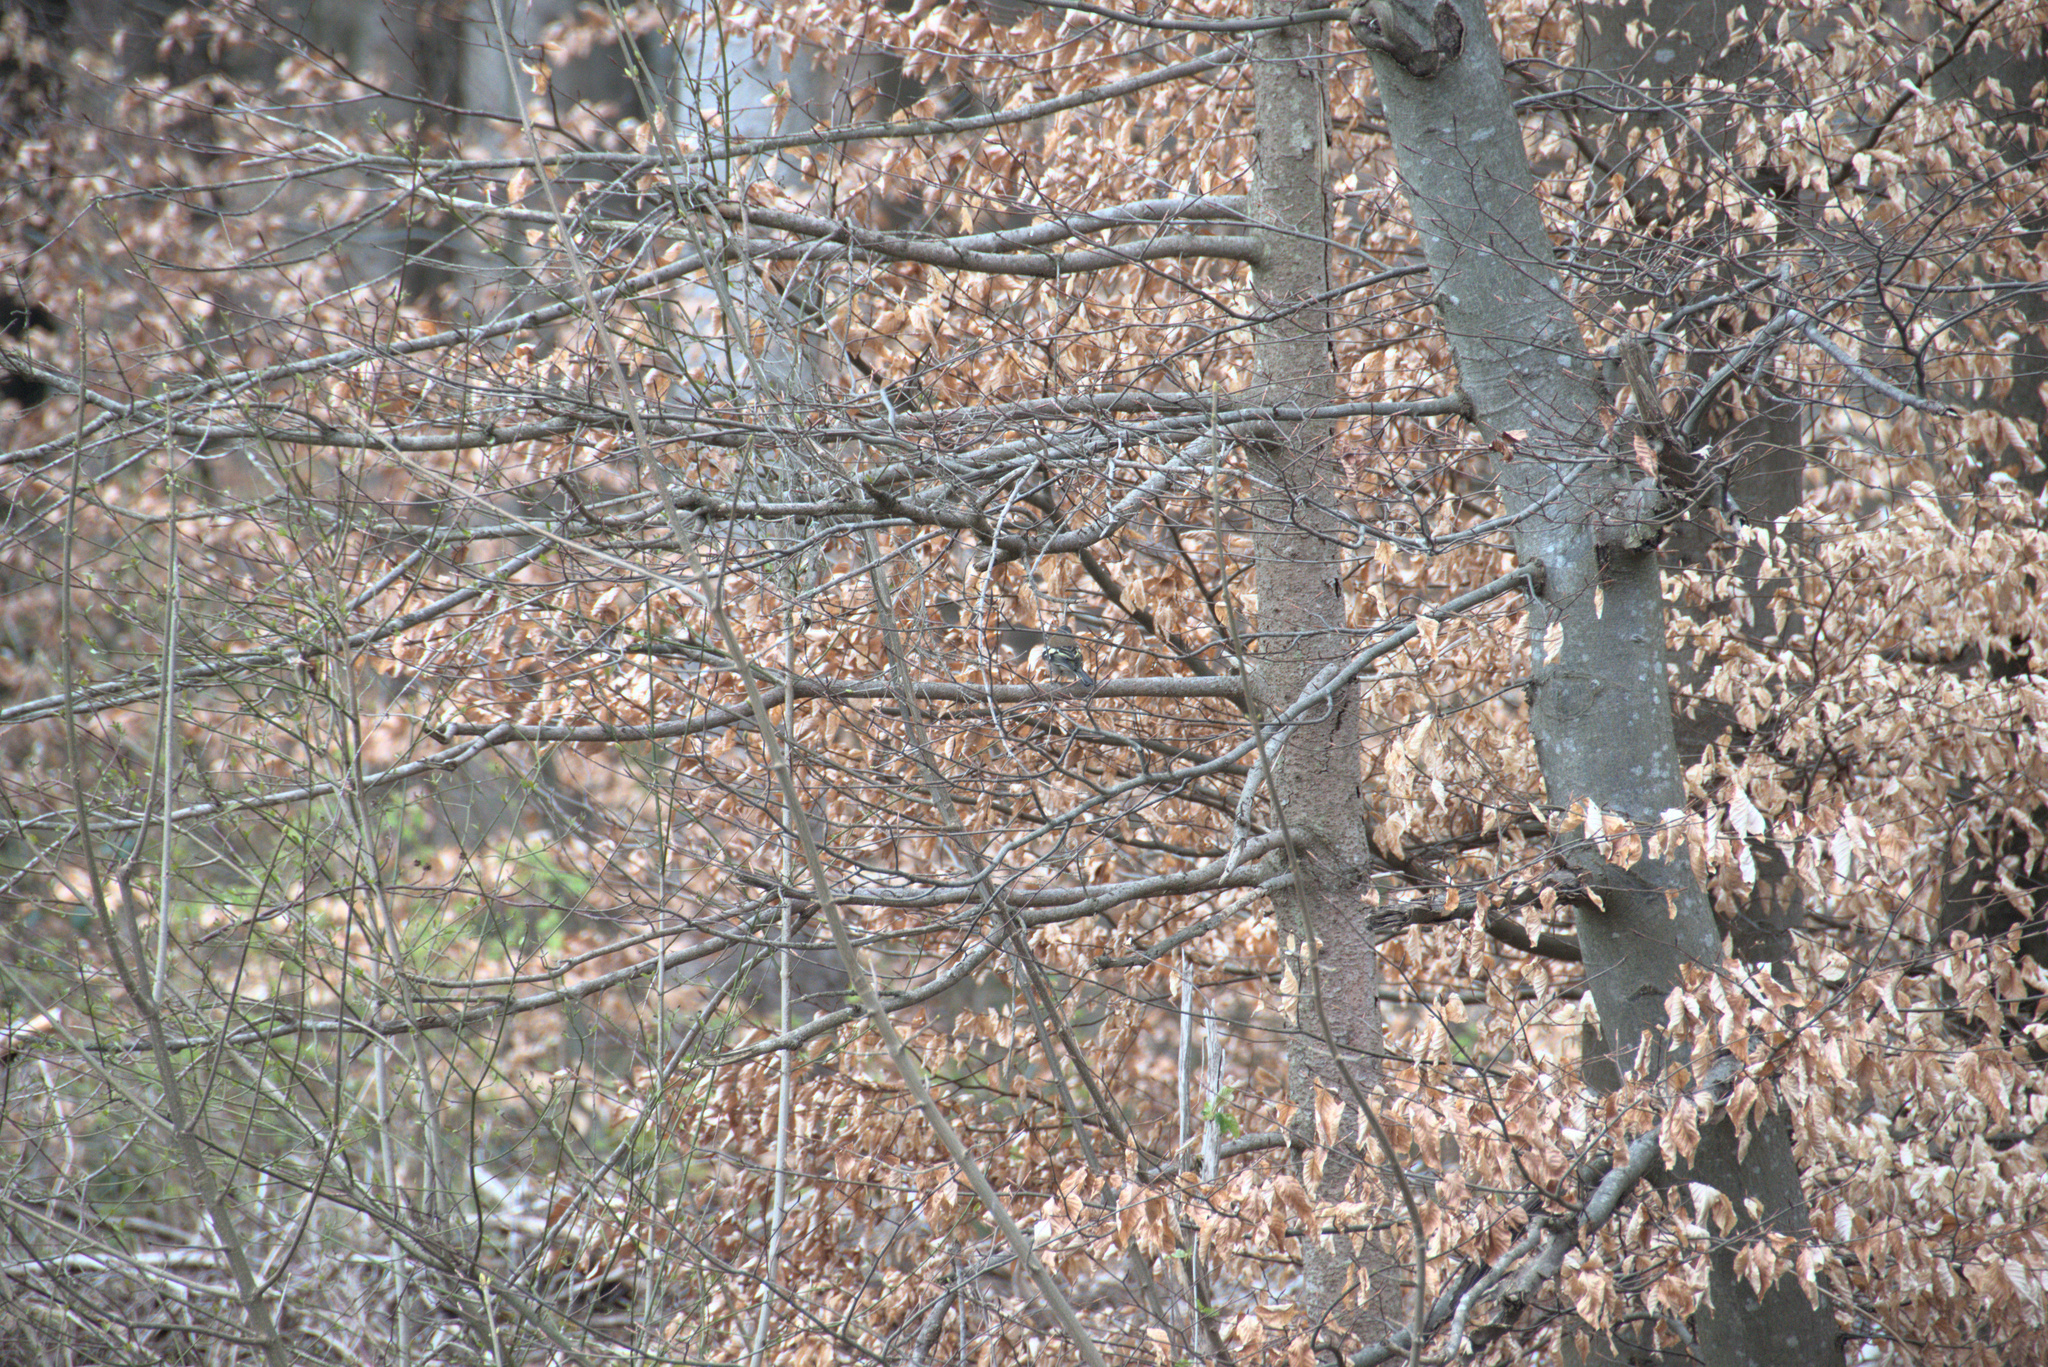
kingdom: Animalia
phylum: Chordata
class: Aves
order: Passeriformes
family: Fringillidae
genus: Fringilla
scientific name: Fringilla coelebs
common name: Common chaffinch
